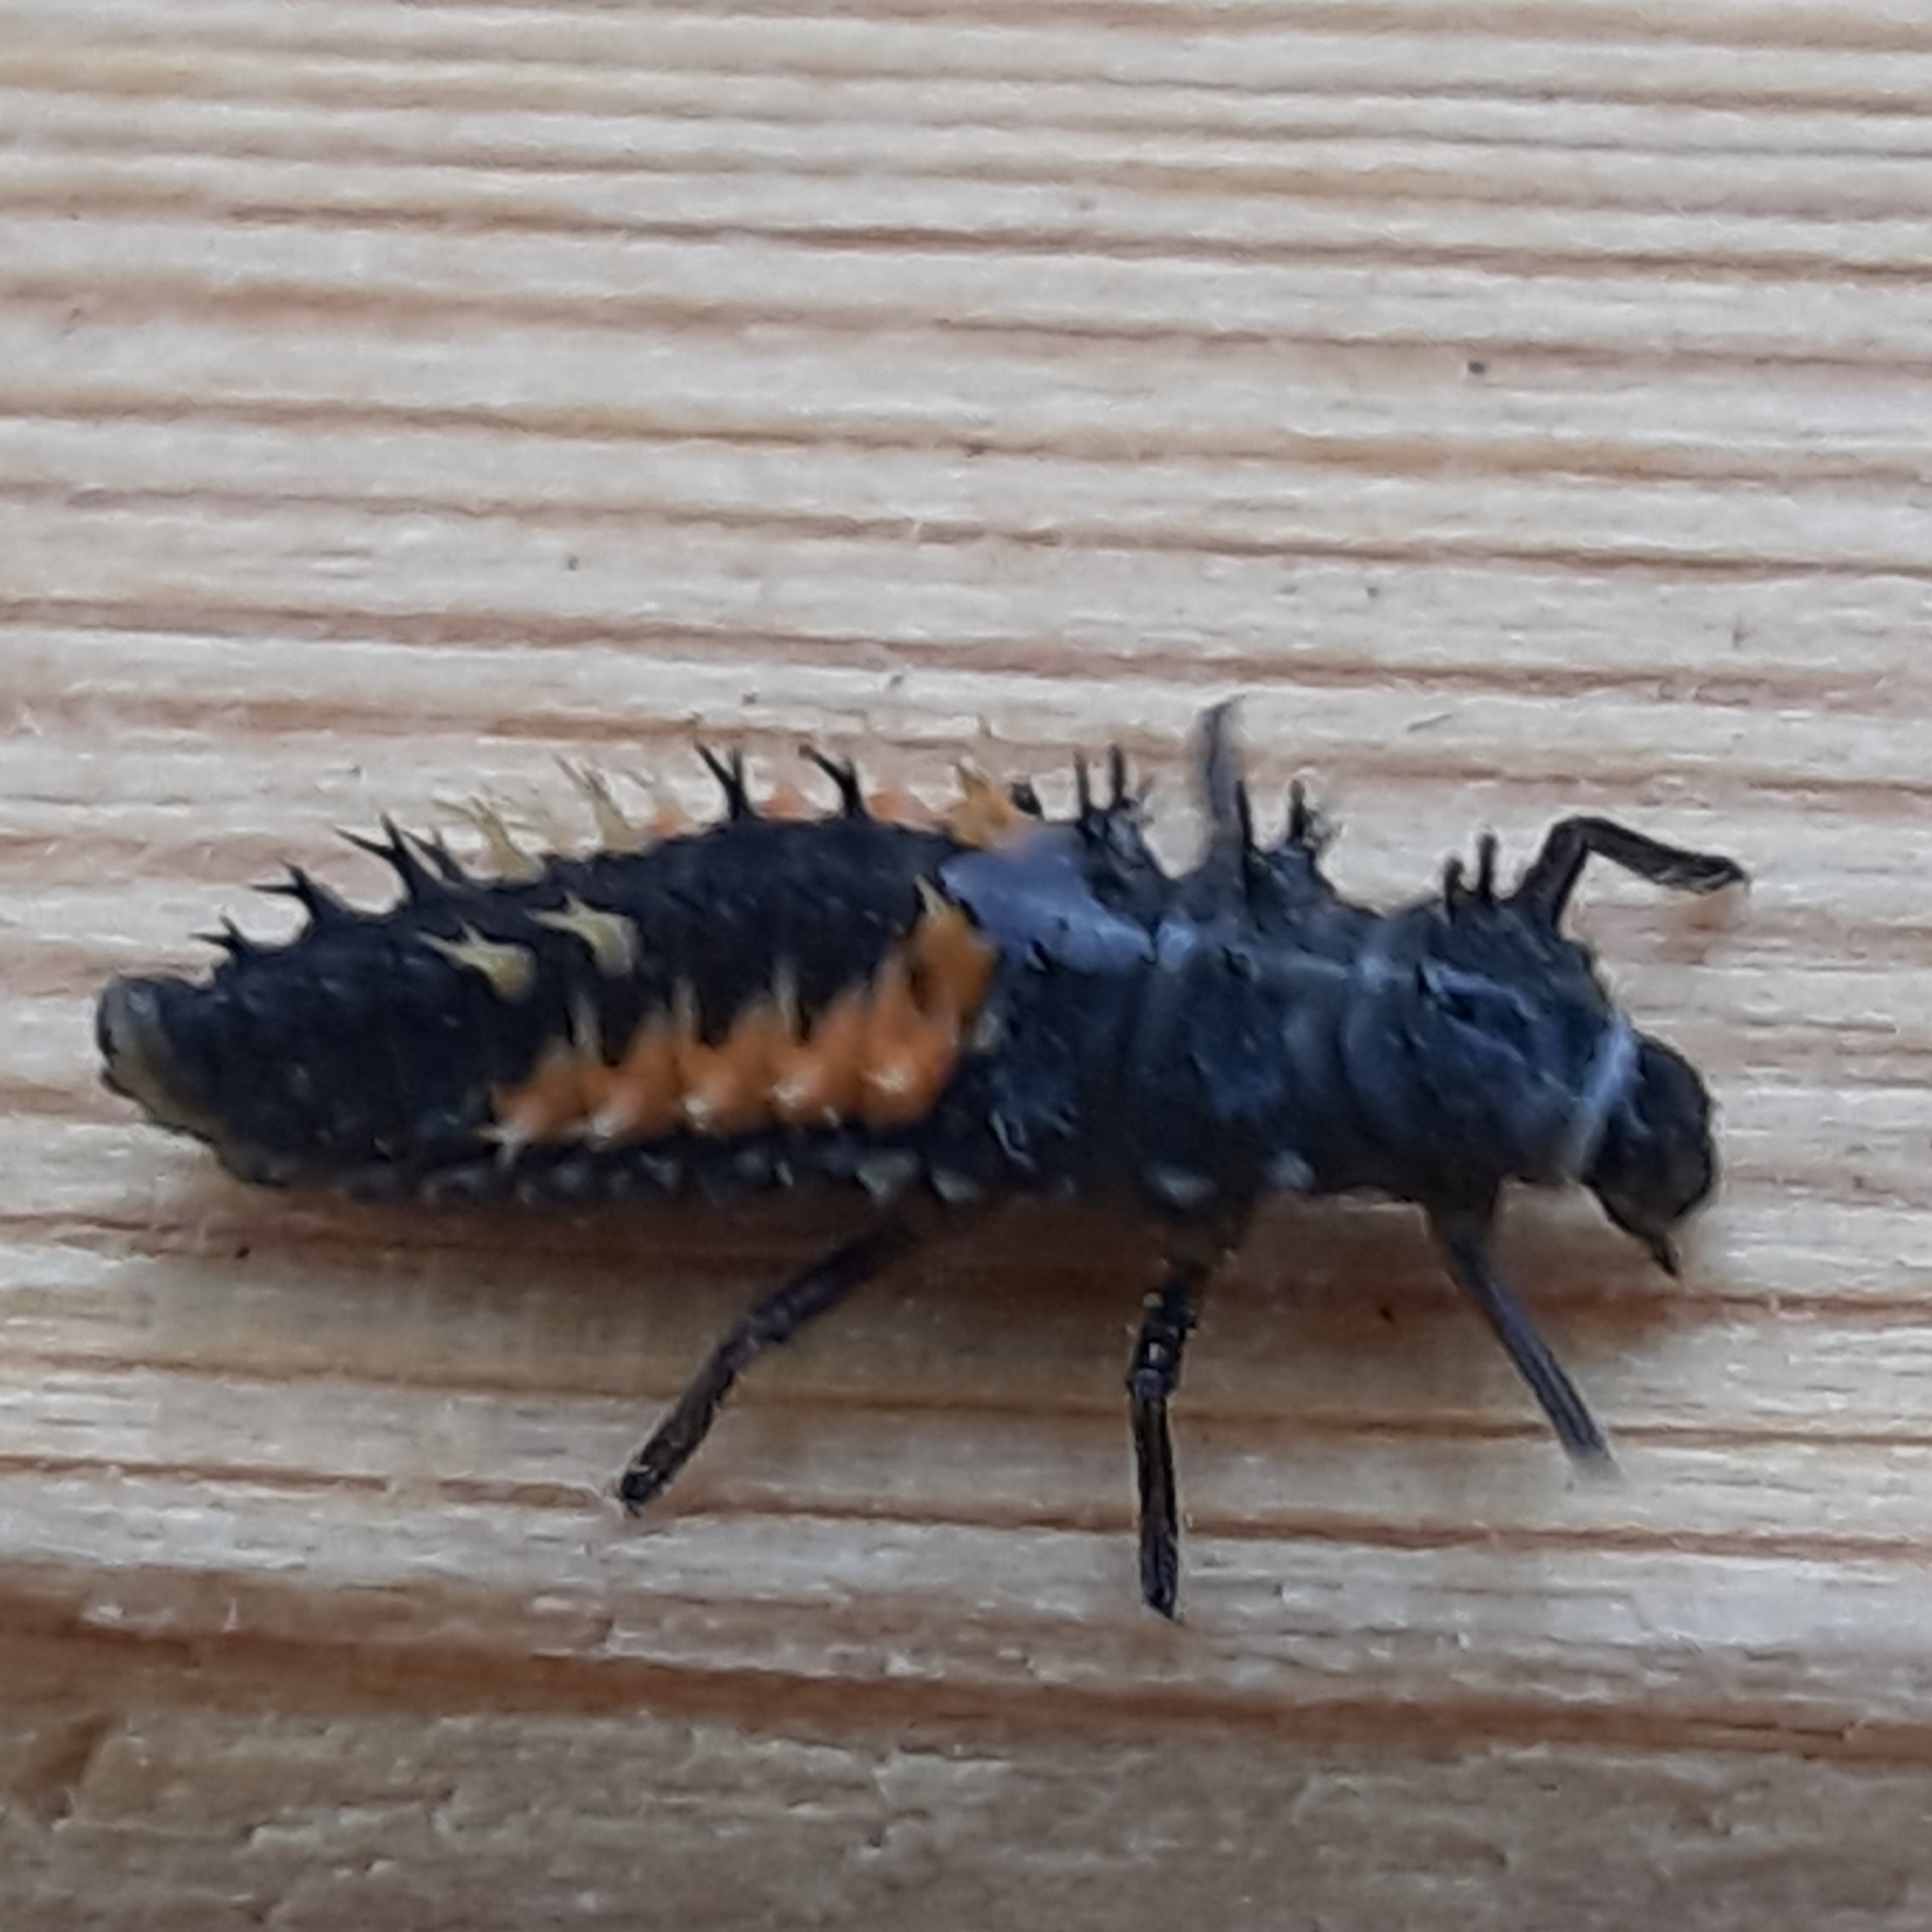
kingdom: Animalia
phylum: Arthropoda
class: Insecta
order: Coleoptera
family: Coccinellidae
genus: Harmonia
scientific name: Harmonia axyridis
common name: Harlequin ladybird
